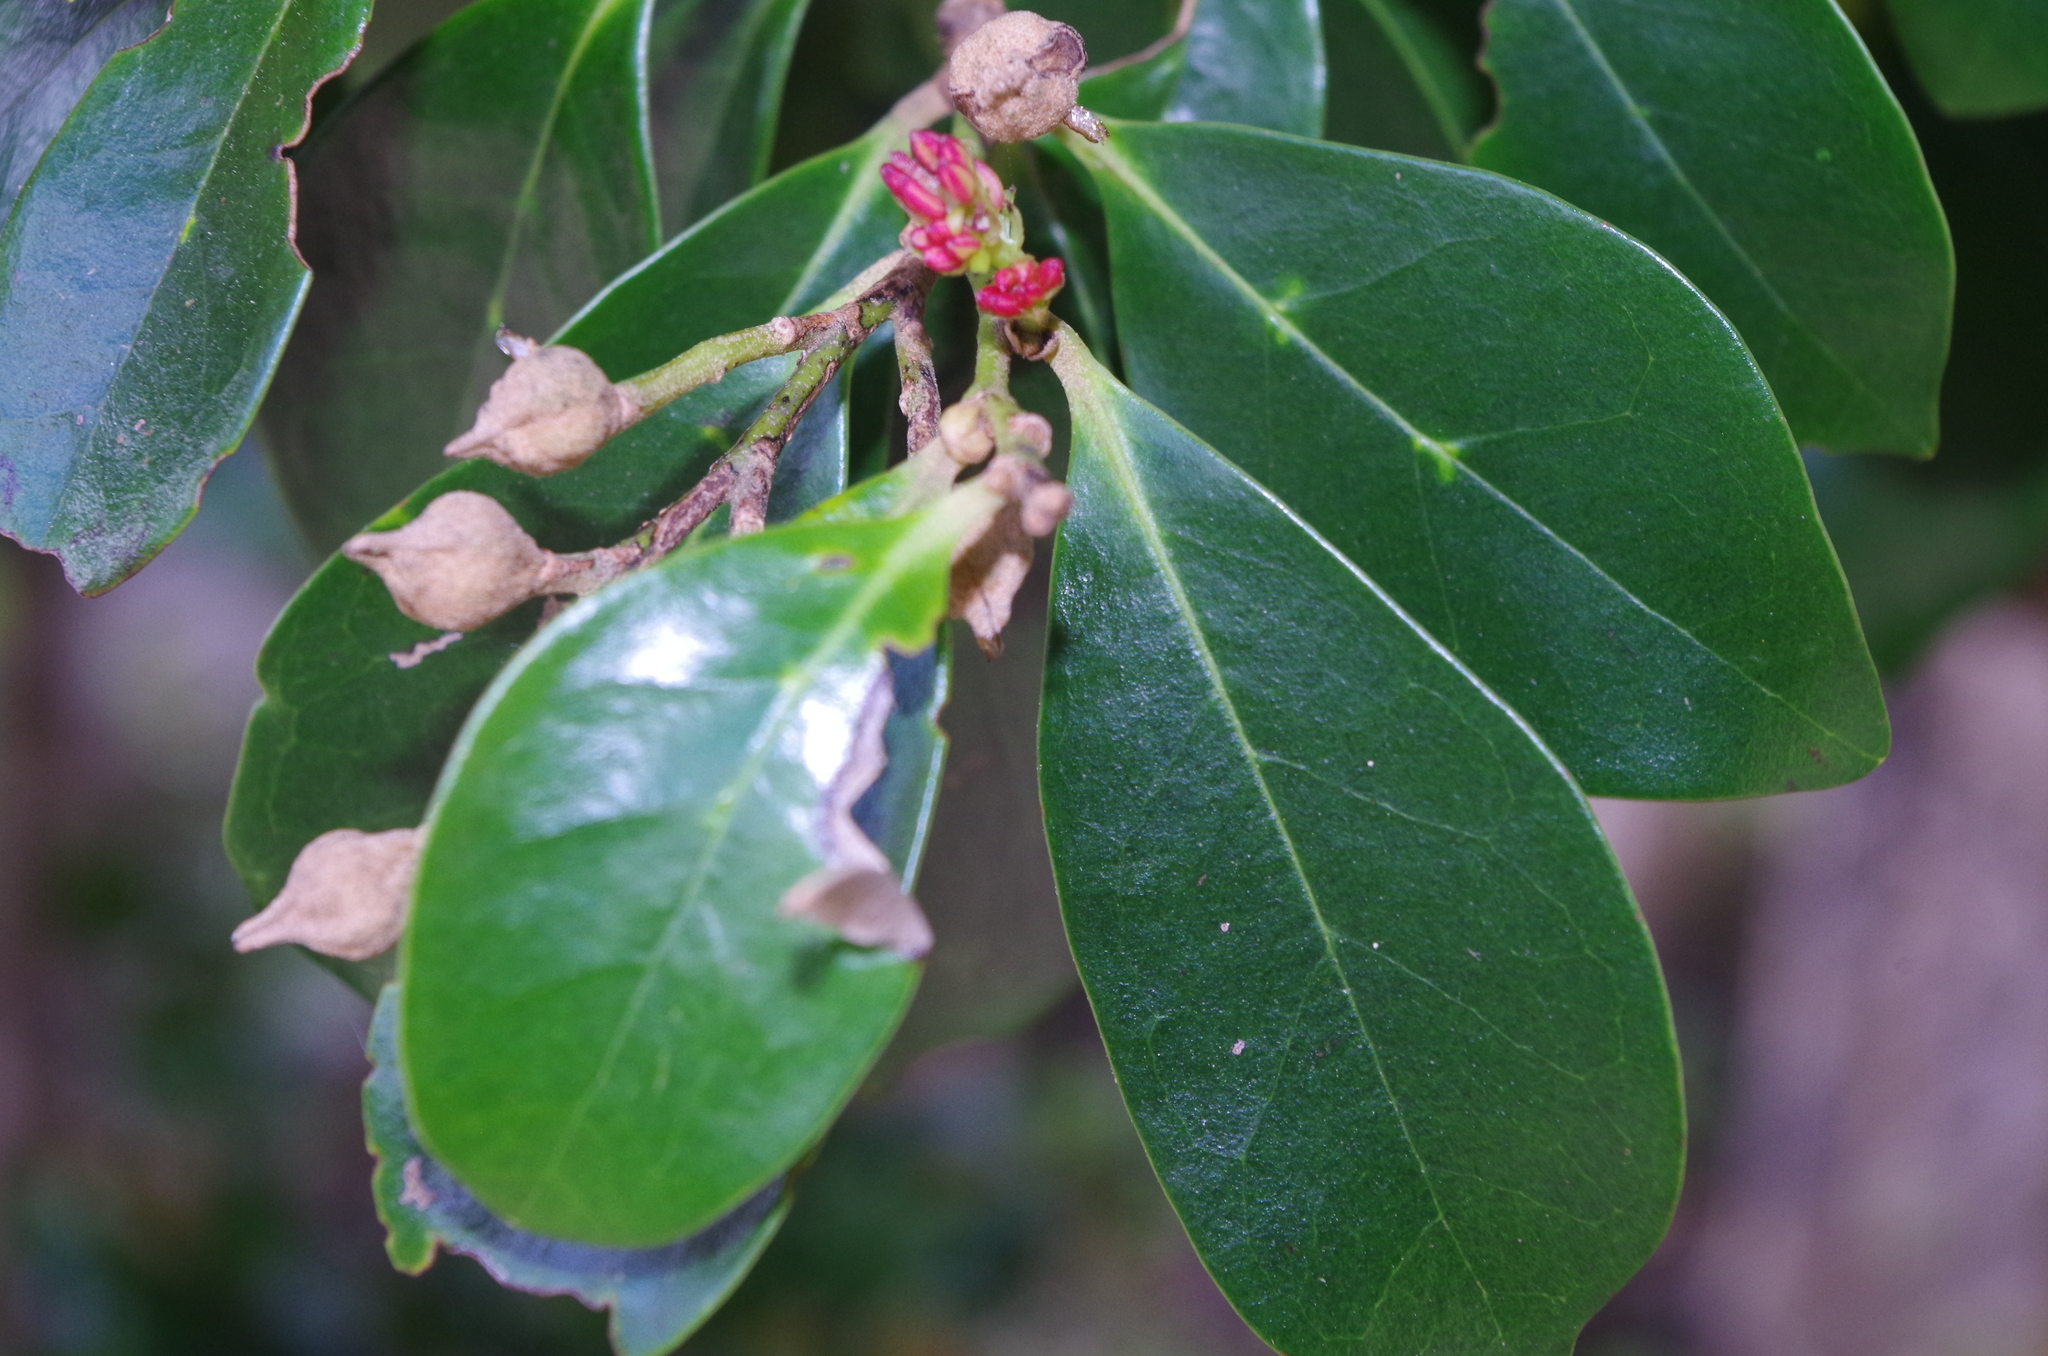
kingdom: Plantae
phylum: Tracheophyta
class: Magnoliopsida
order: Saxifragales
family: Hamamelidaceae
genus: Distylium
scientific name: Distylium racemosum
